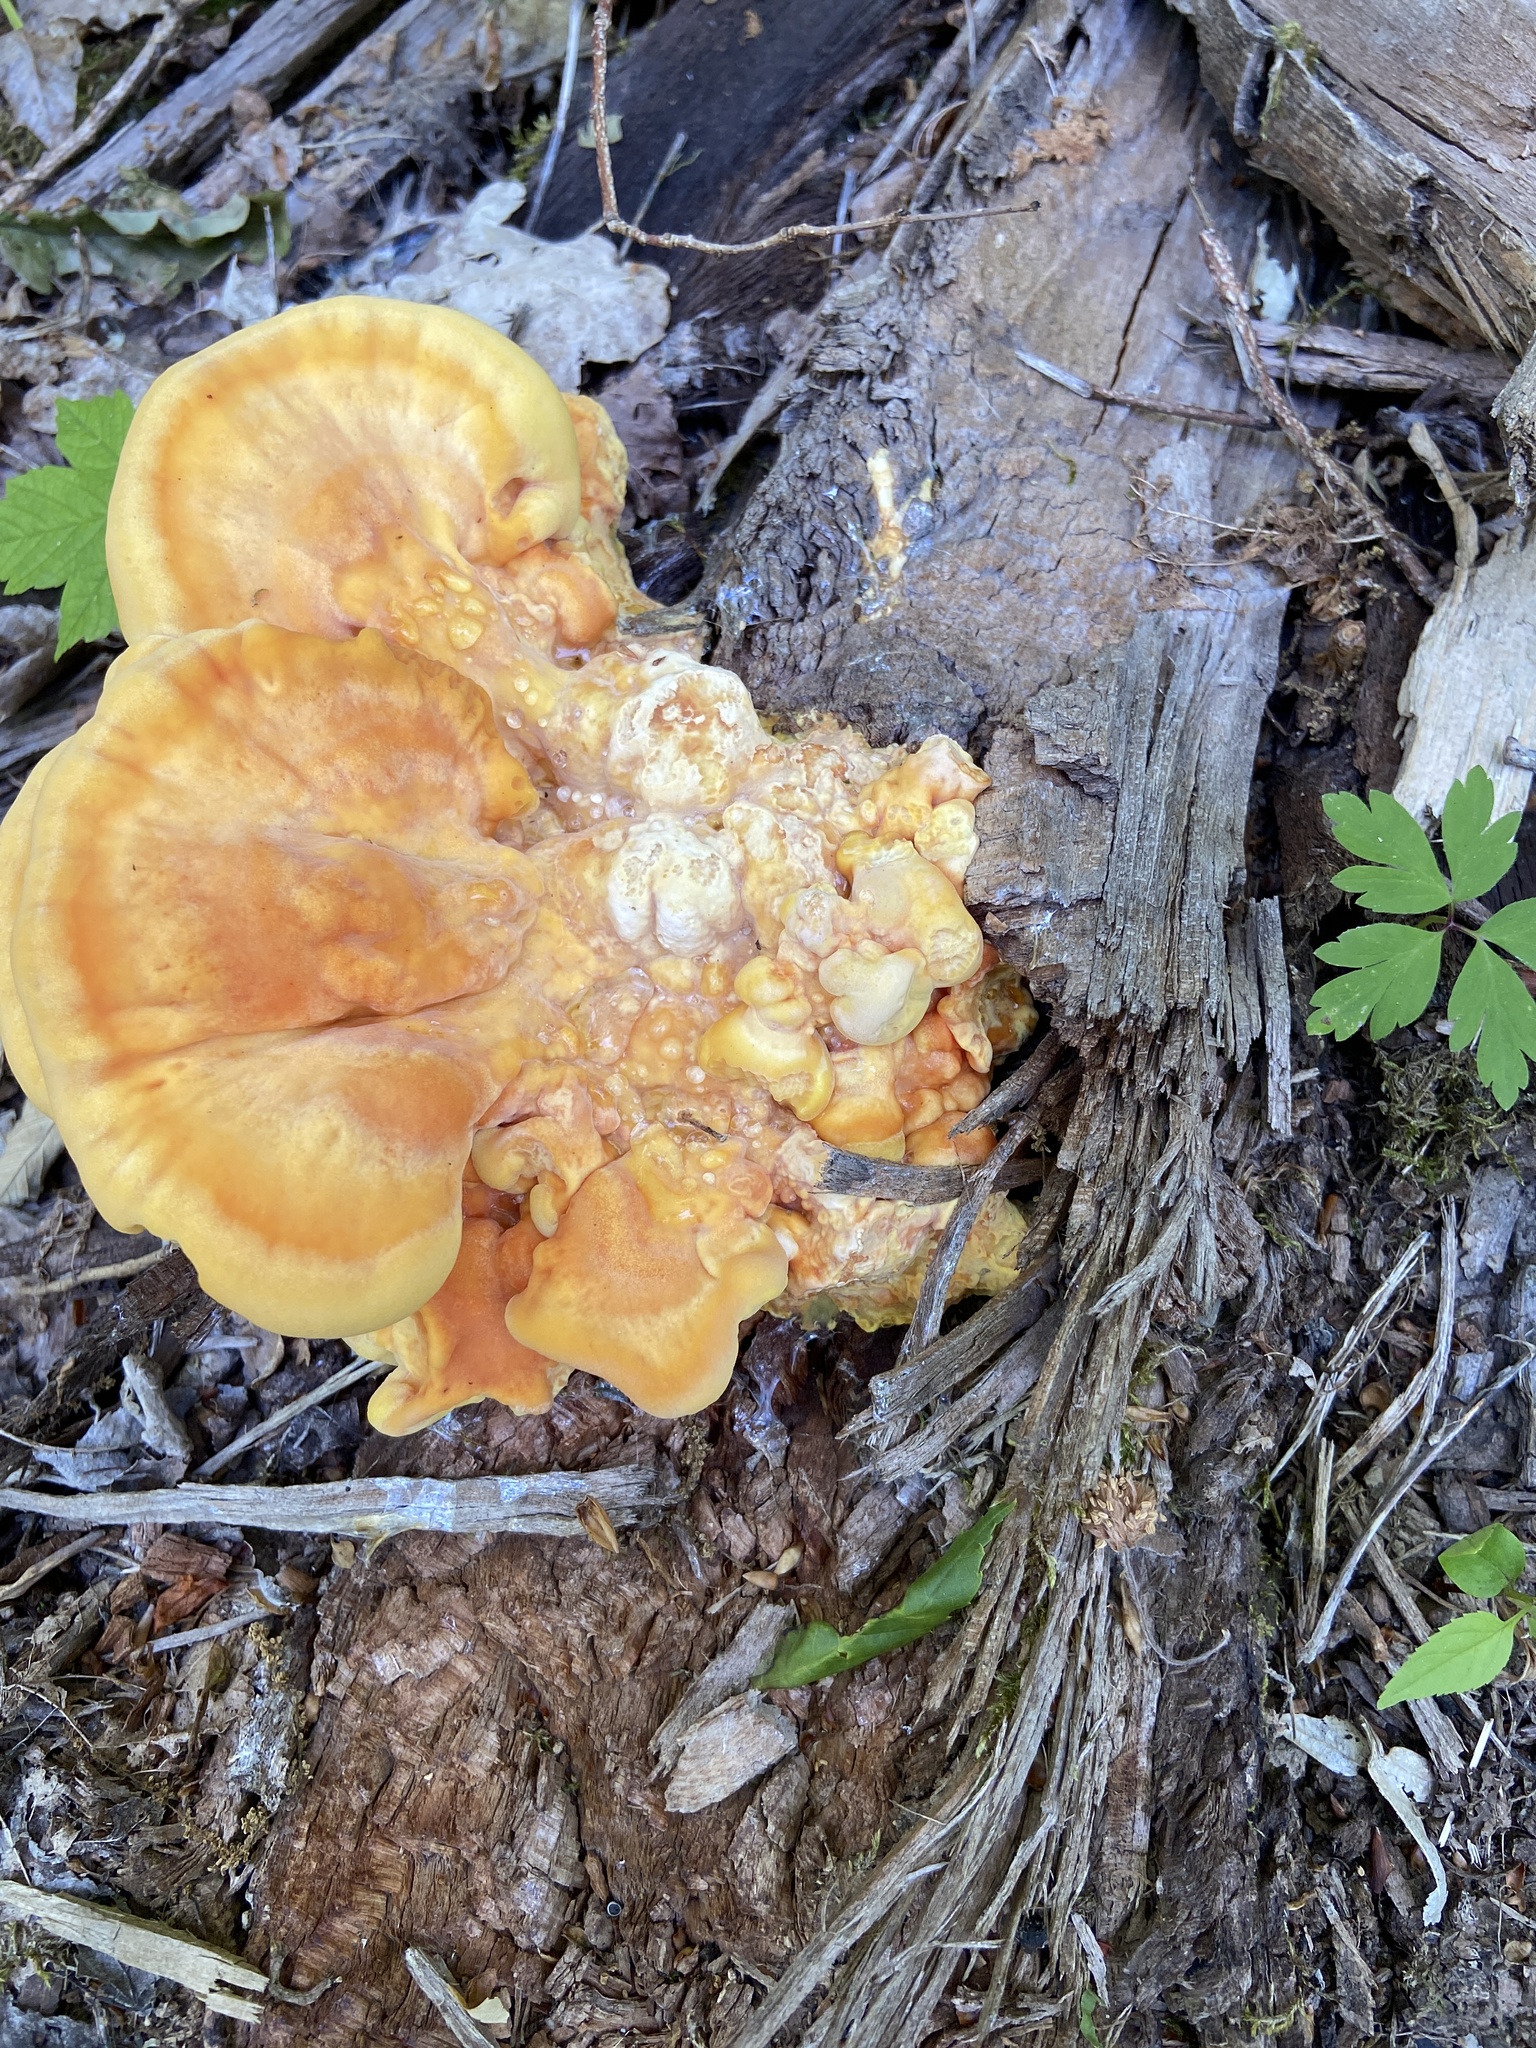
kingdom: Fungi
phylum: Basidiomycota
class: Agaricomycetes
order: Polyporales
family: Laetiporaceae
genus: Laetiporus
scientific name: Laetiporus sulphureus
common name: Chicken of the woods
